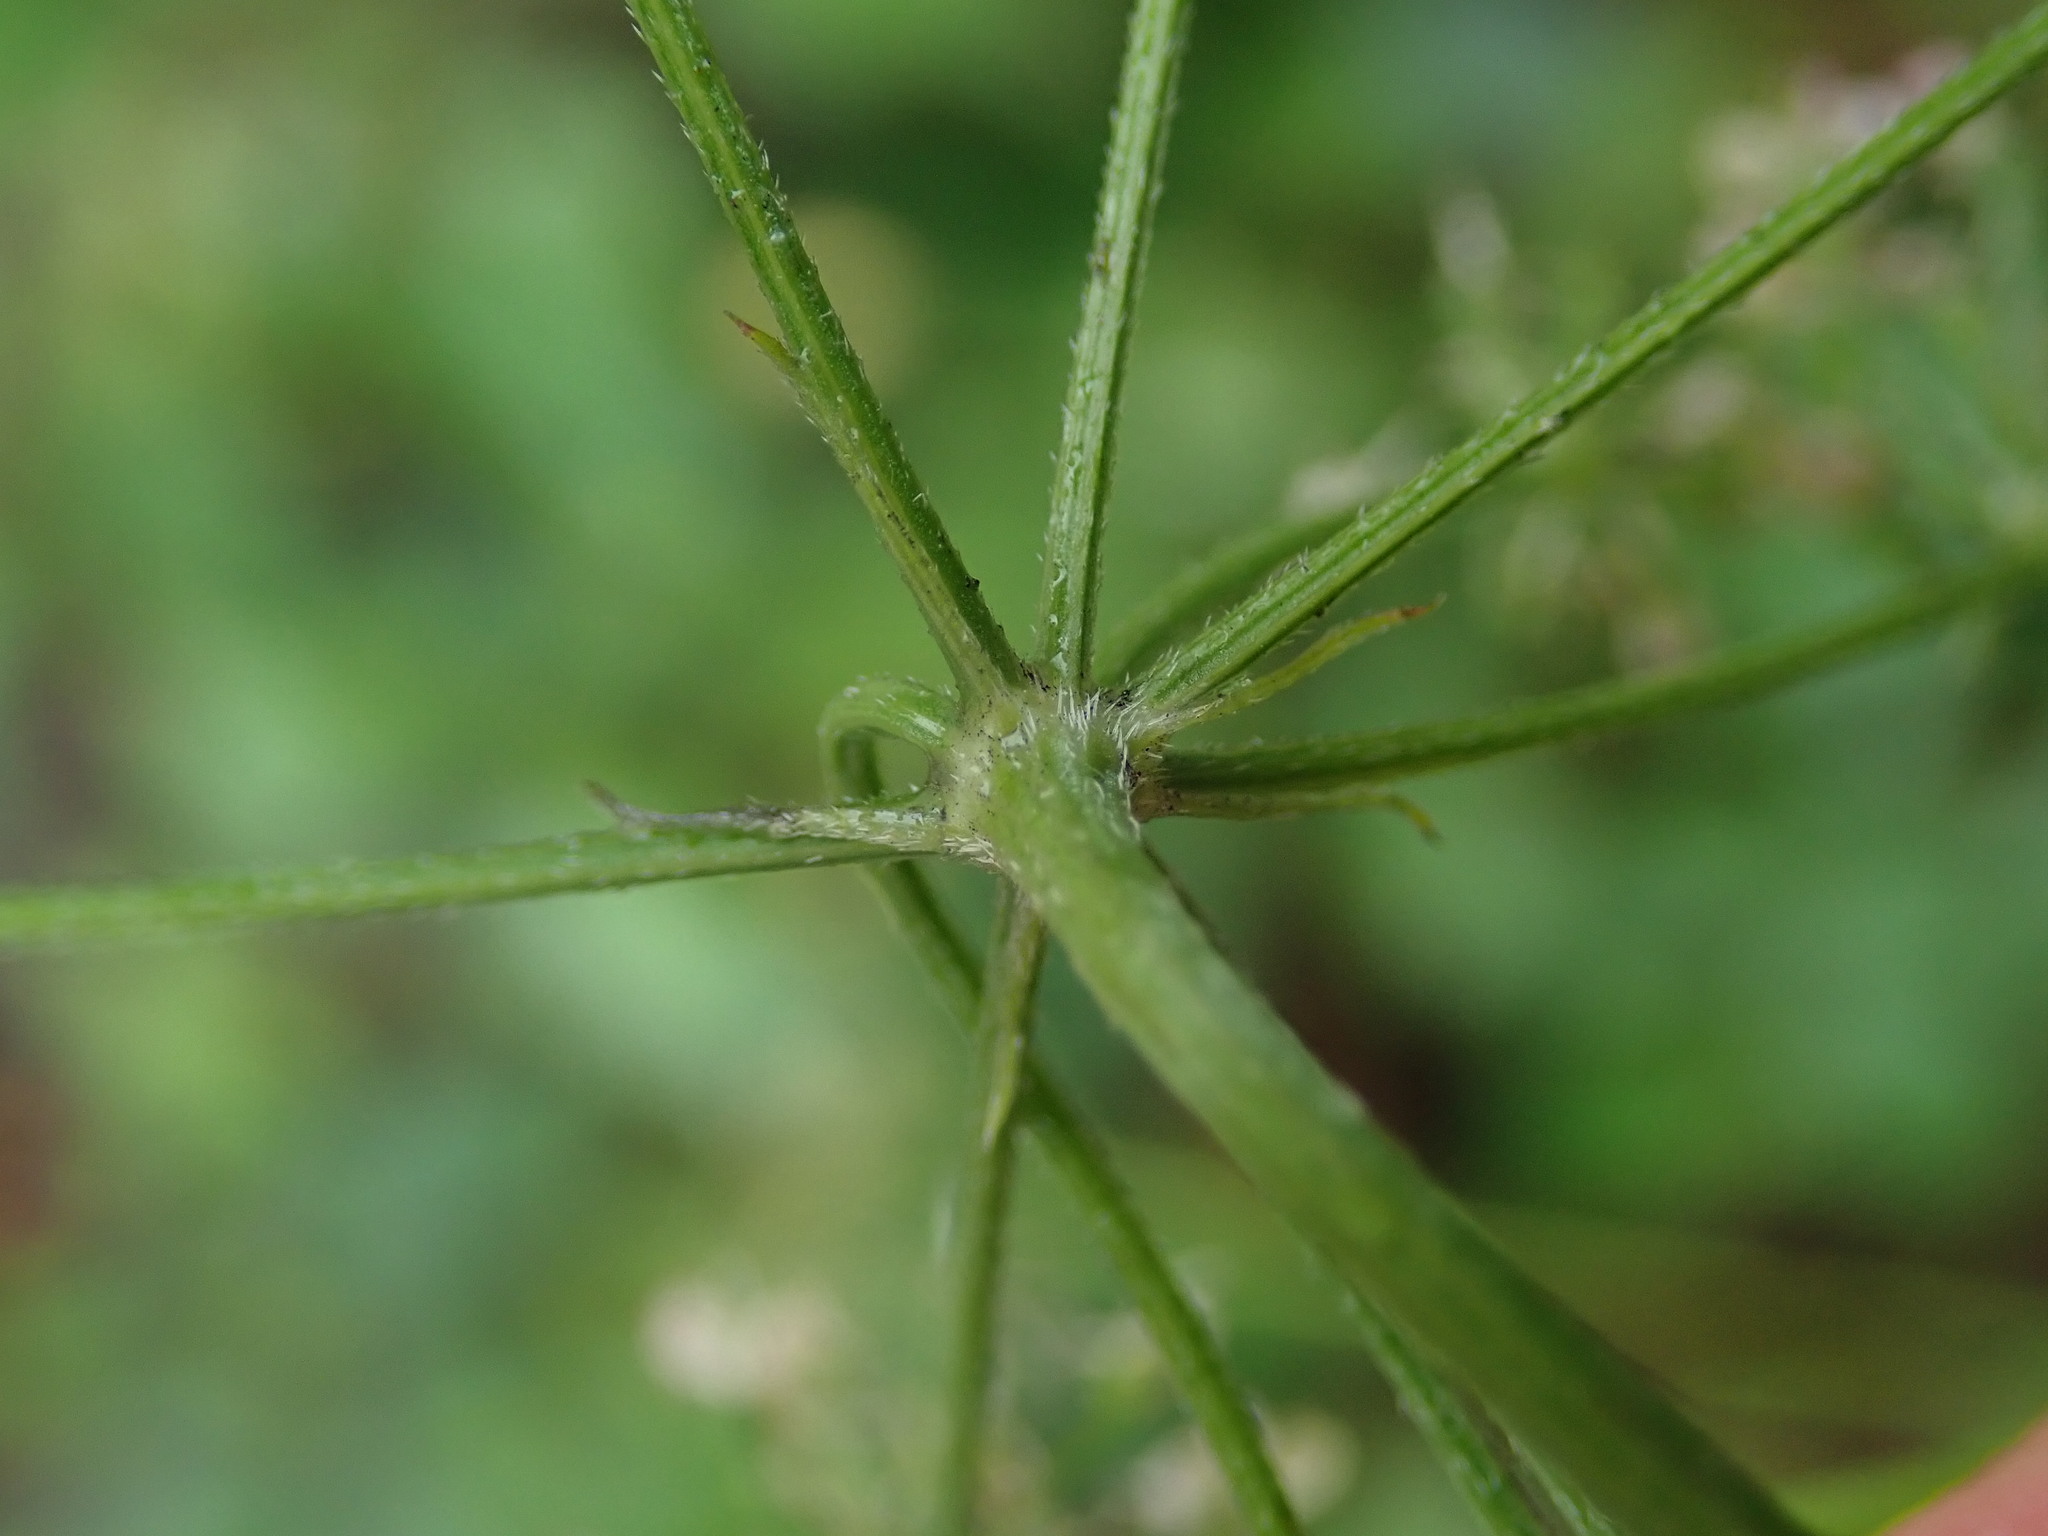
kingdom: Plantae
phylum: Tracheophyta
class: Magnoliopsida
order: Apiales
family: Apiaceae
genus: Torilis
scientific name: Torilis japonica
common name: Upright hedge-parsley
